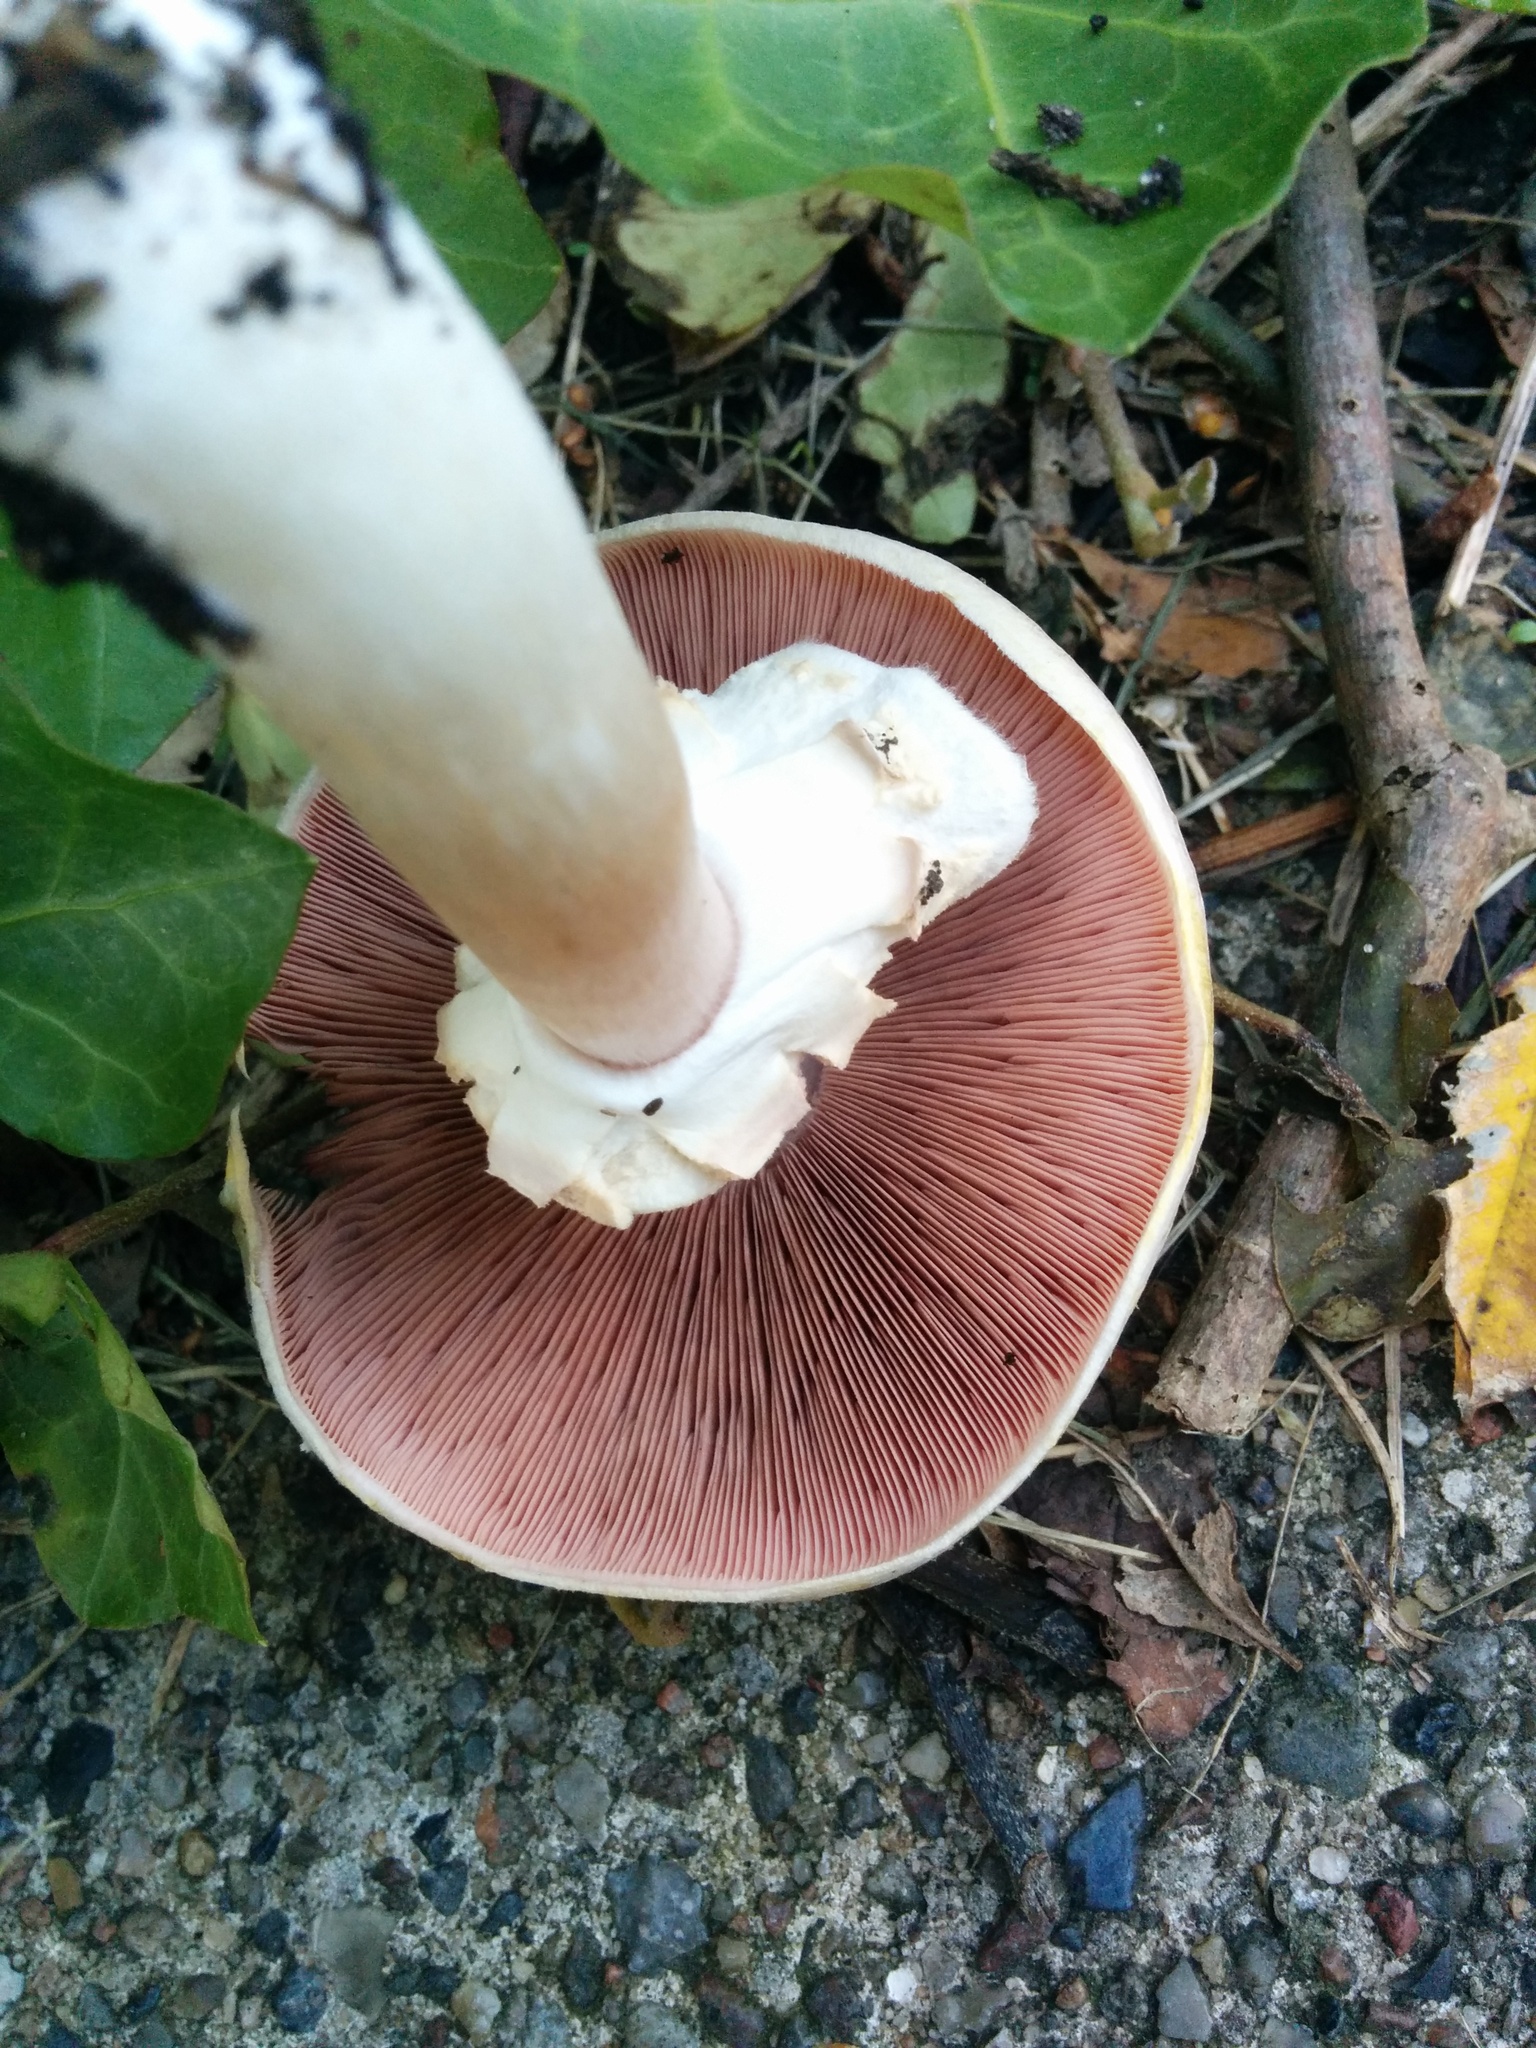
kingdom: Fungi
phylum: Basidiomycota
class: Agaricomycetes
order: Agaricales
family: Agaricaceae
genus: Agaricus
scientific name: Agaricus xanthodermus
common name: Yellow stainer
